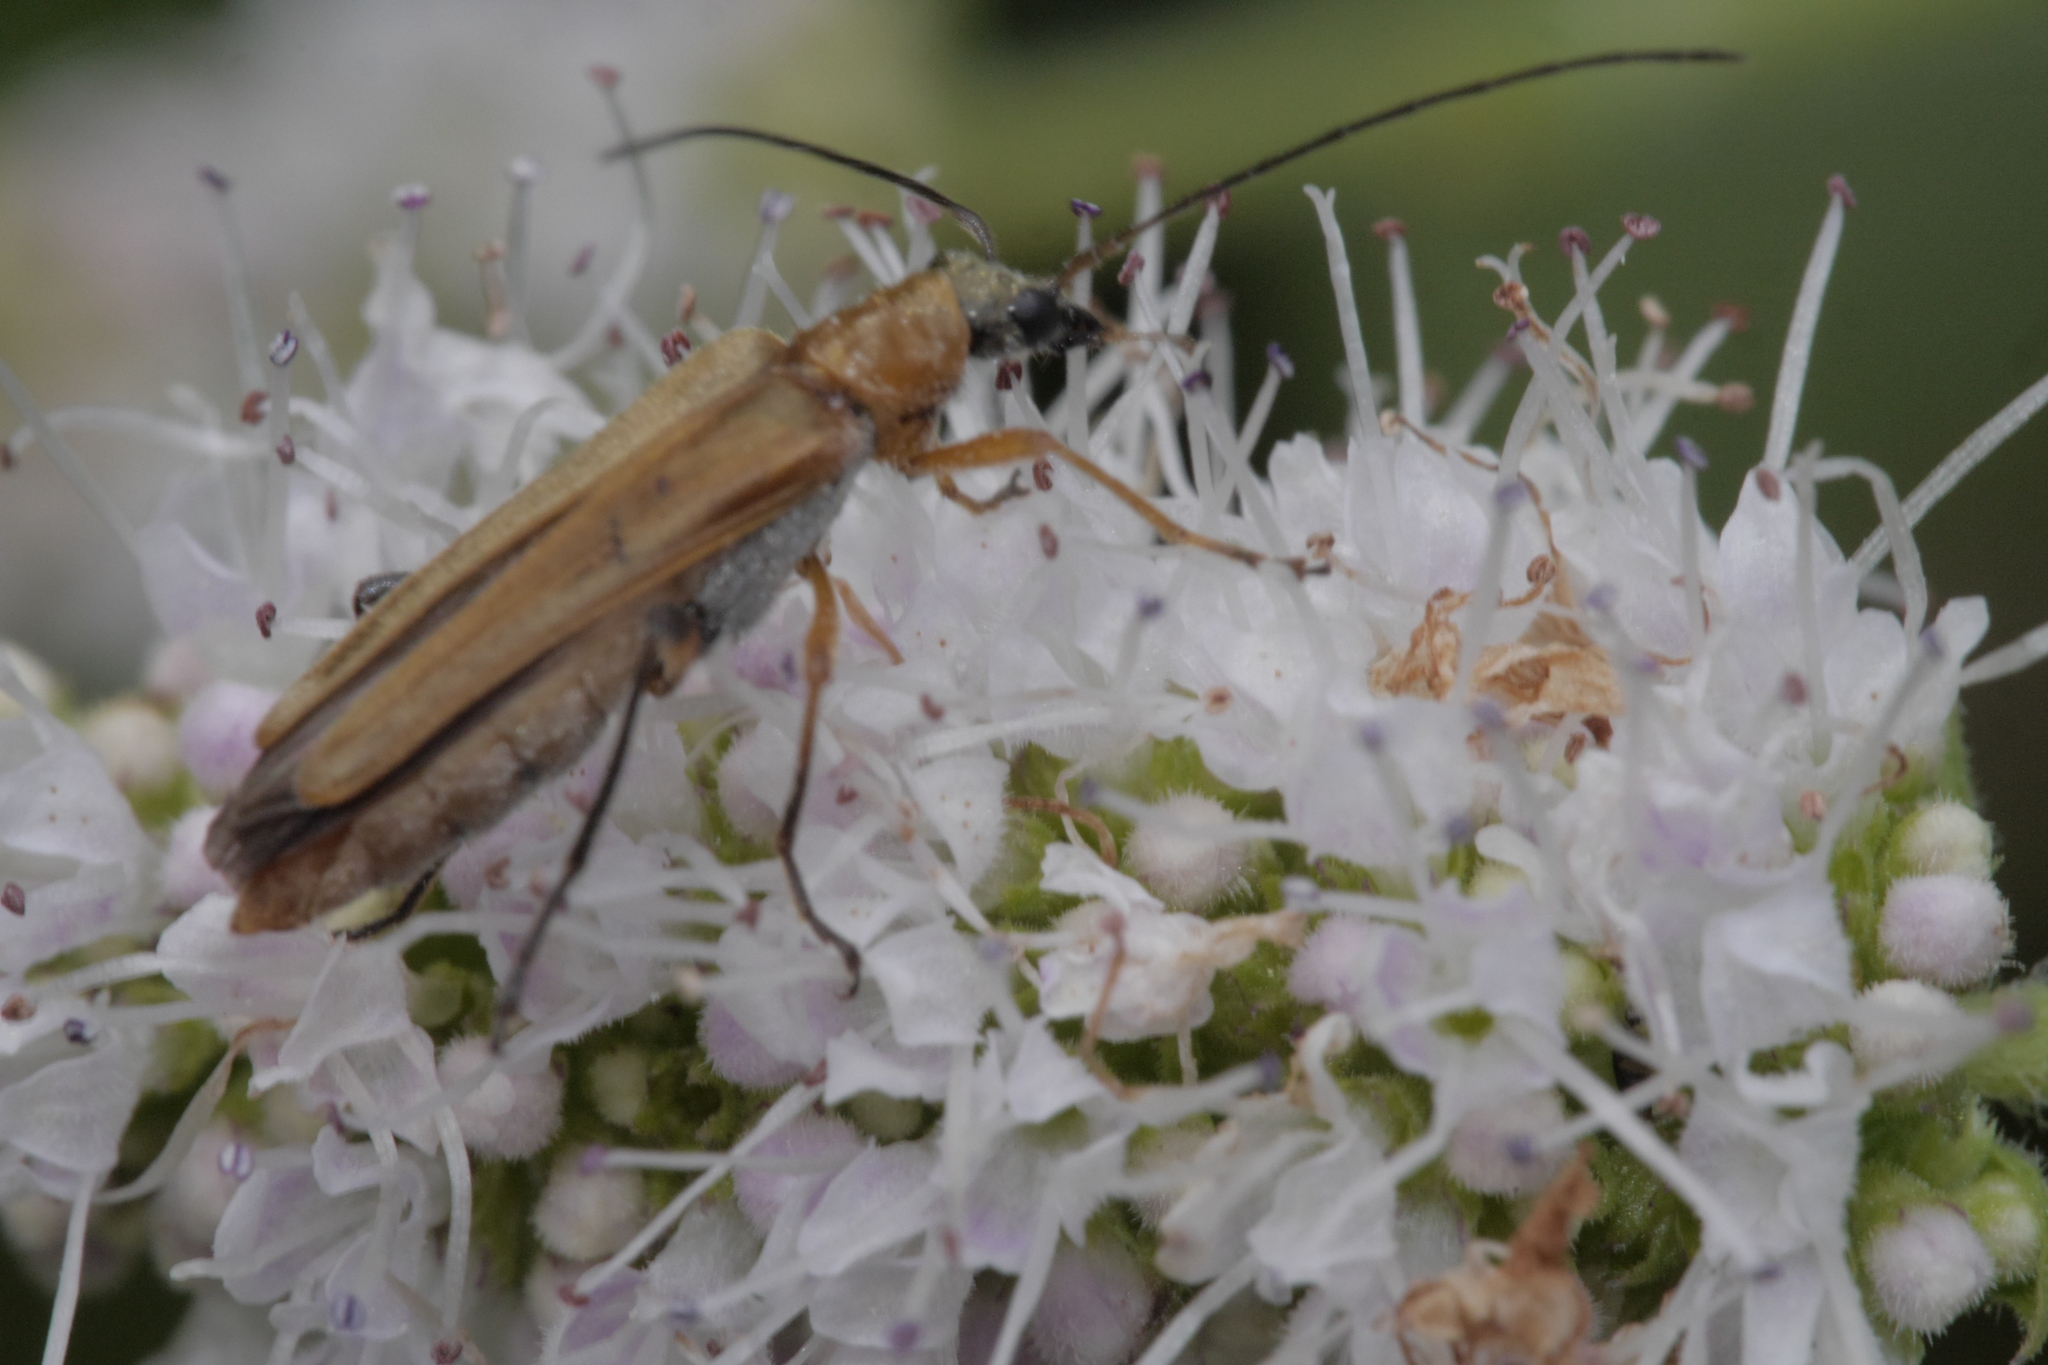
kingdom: Animalia
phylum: Arthropoda
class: Insecta
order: Coleoptera
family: Oedemeridae
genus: Oedemera
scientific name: Oedemera podagrariae
